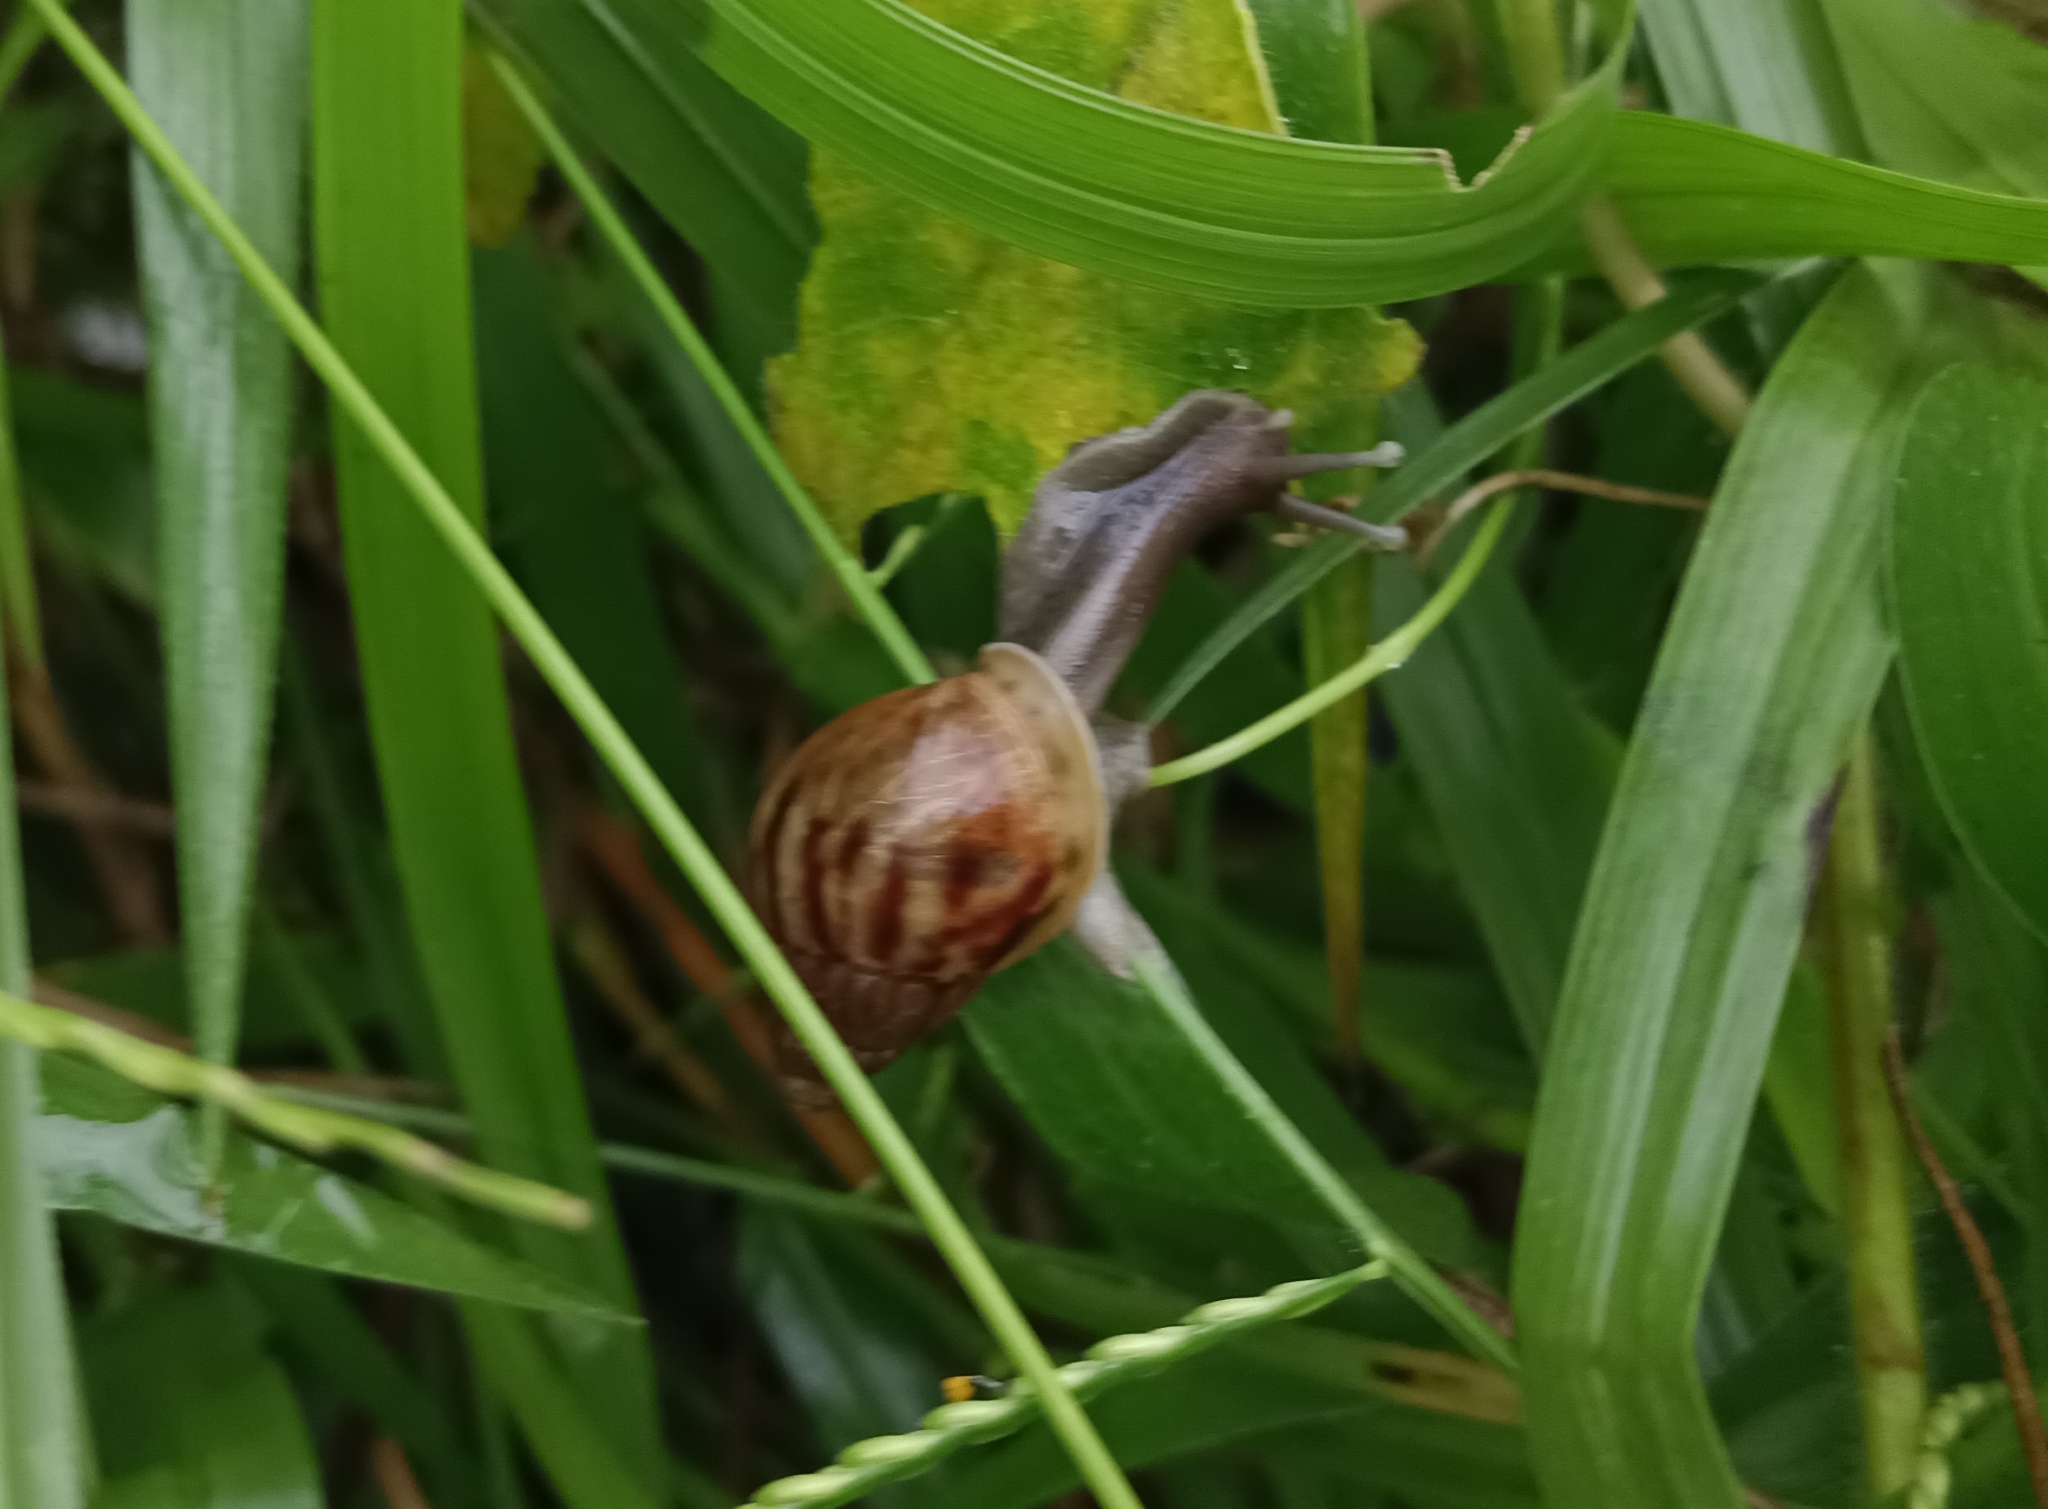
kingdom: Animalia
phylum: Mollusca
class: Gastropoda
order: Stylommatophora
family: Achatinidae
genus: Lissachatina
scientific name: Lissachatina fulica
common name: Giant african snail
